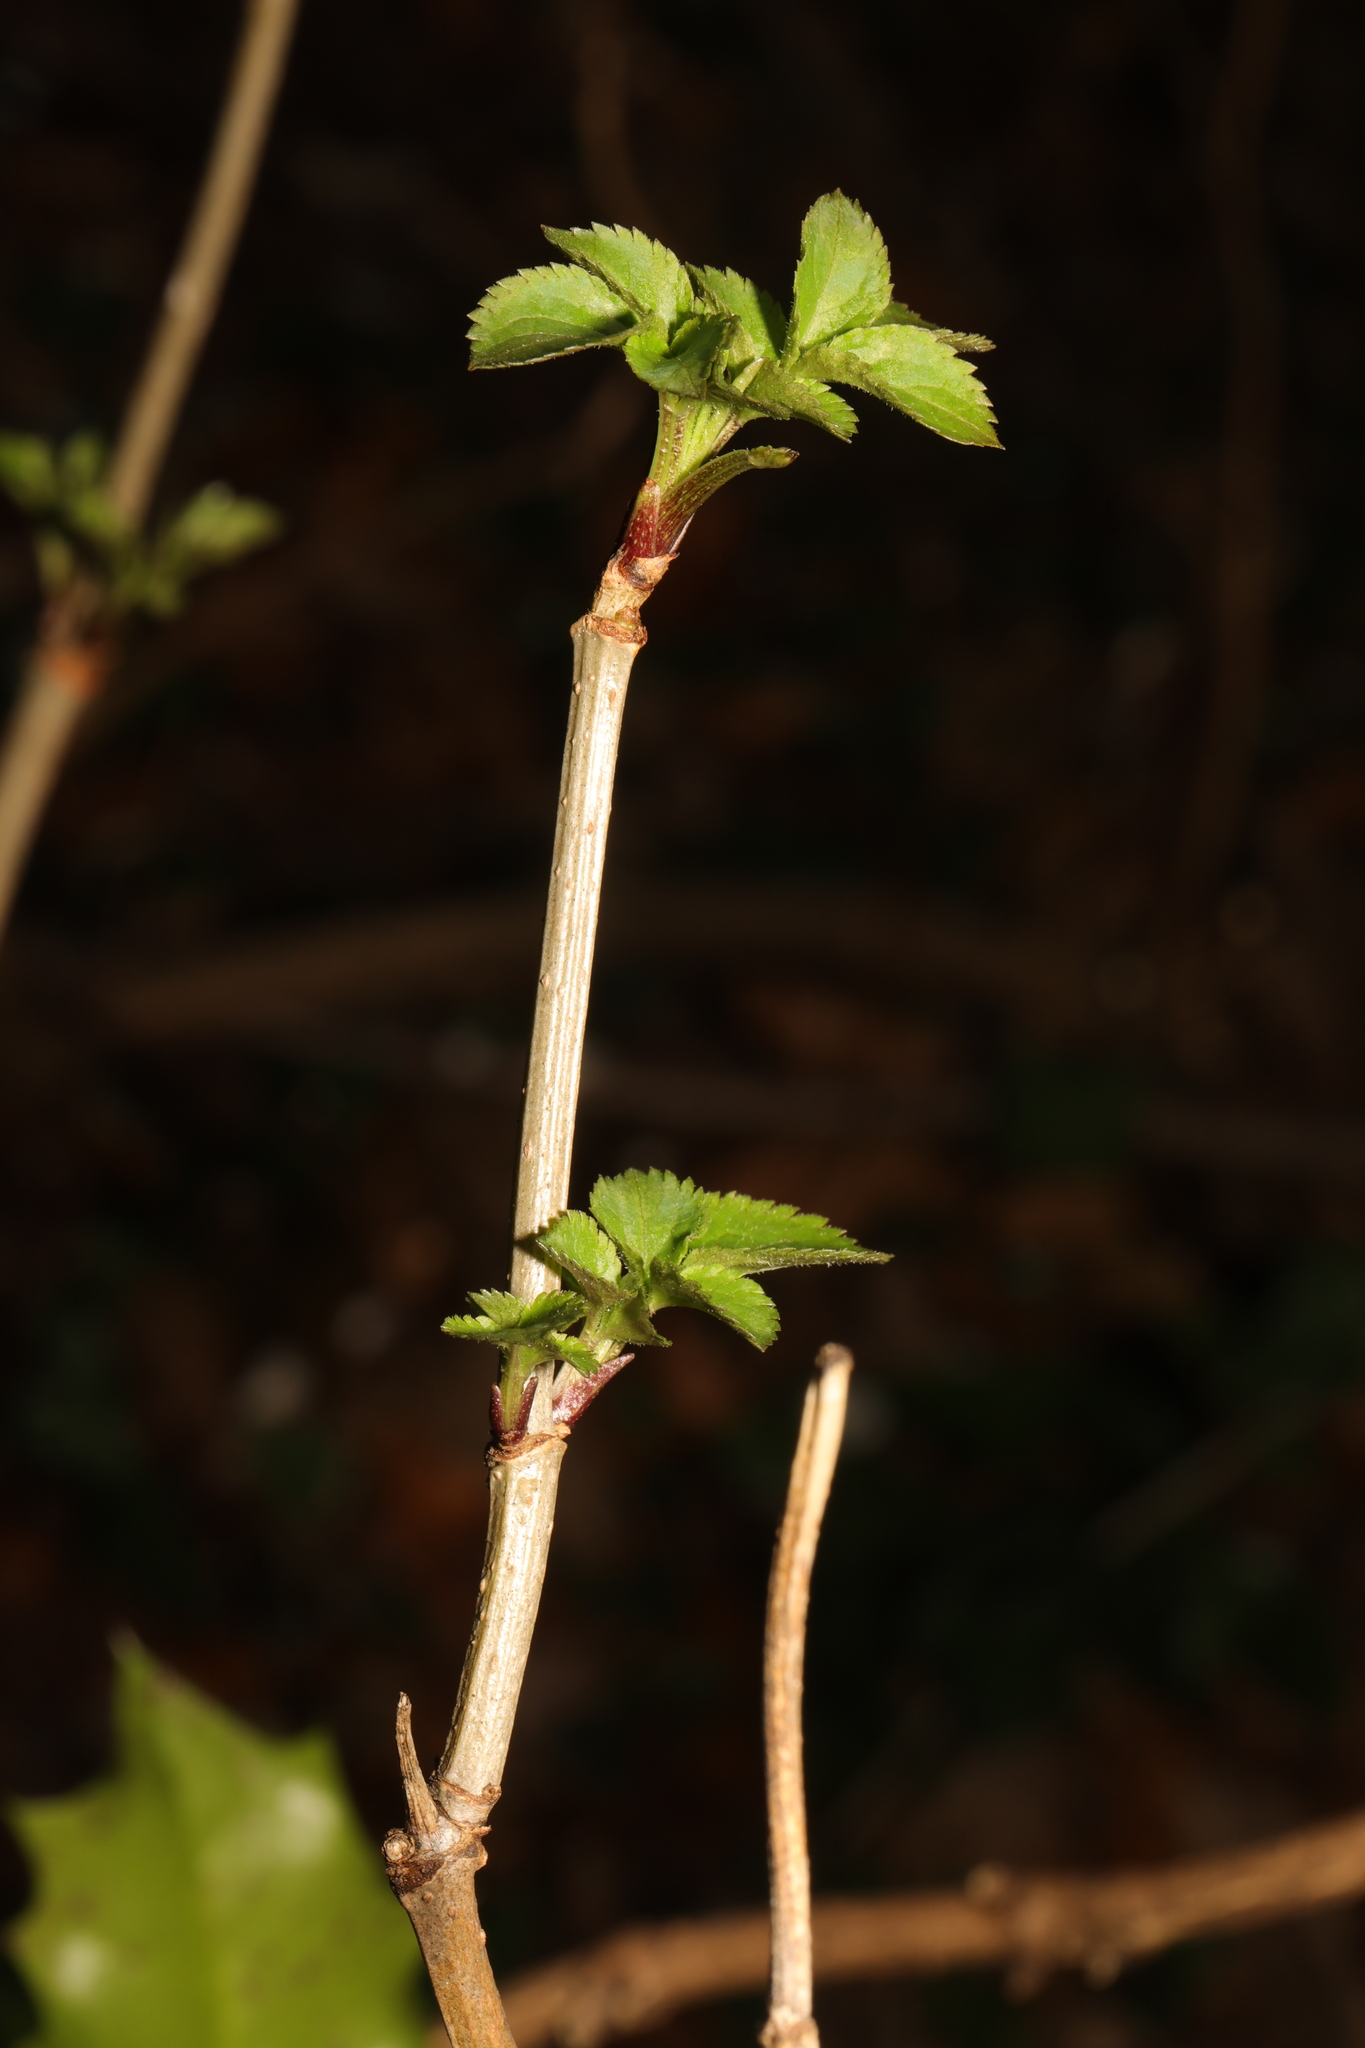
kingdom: Plantae
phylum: Tracheophyta
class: Magnoliopsida
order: Dipsacales
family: Viburnaceae
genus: Sambucus
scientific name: Sambucus nigra
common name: Elder
